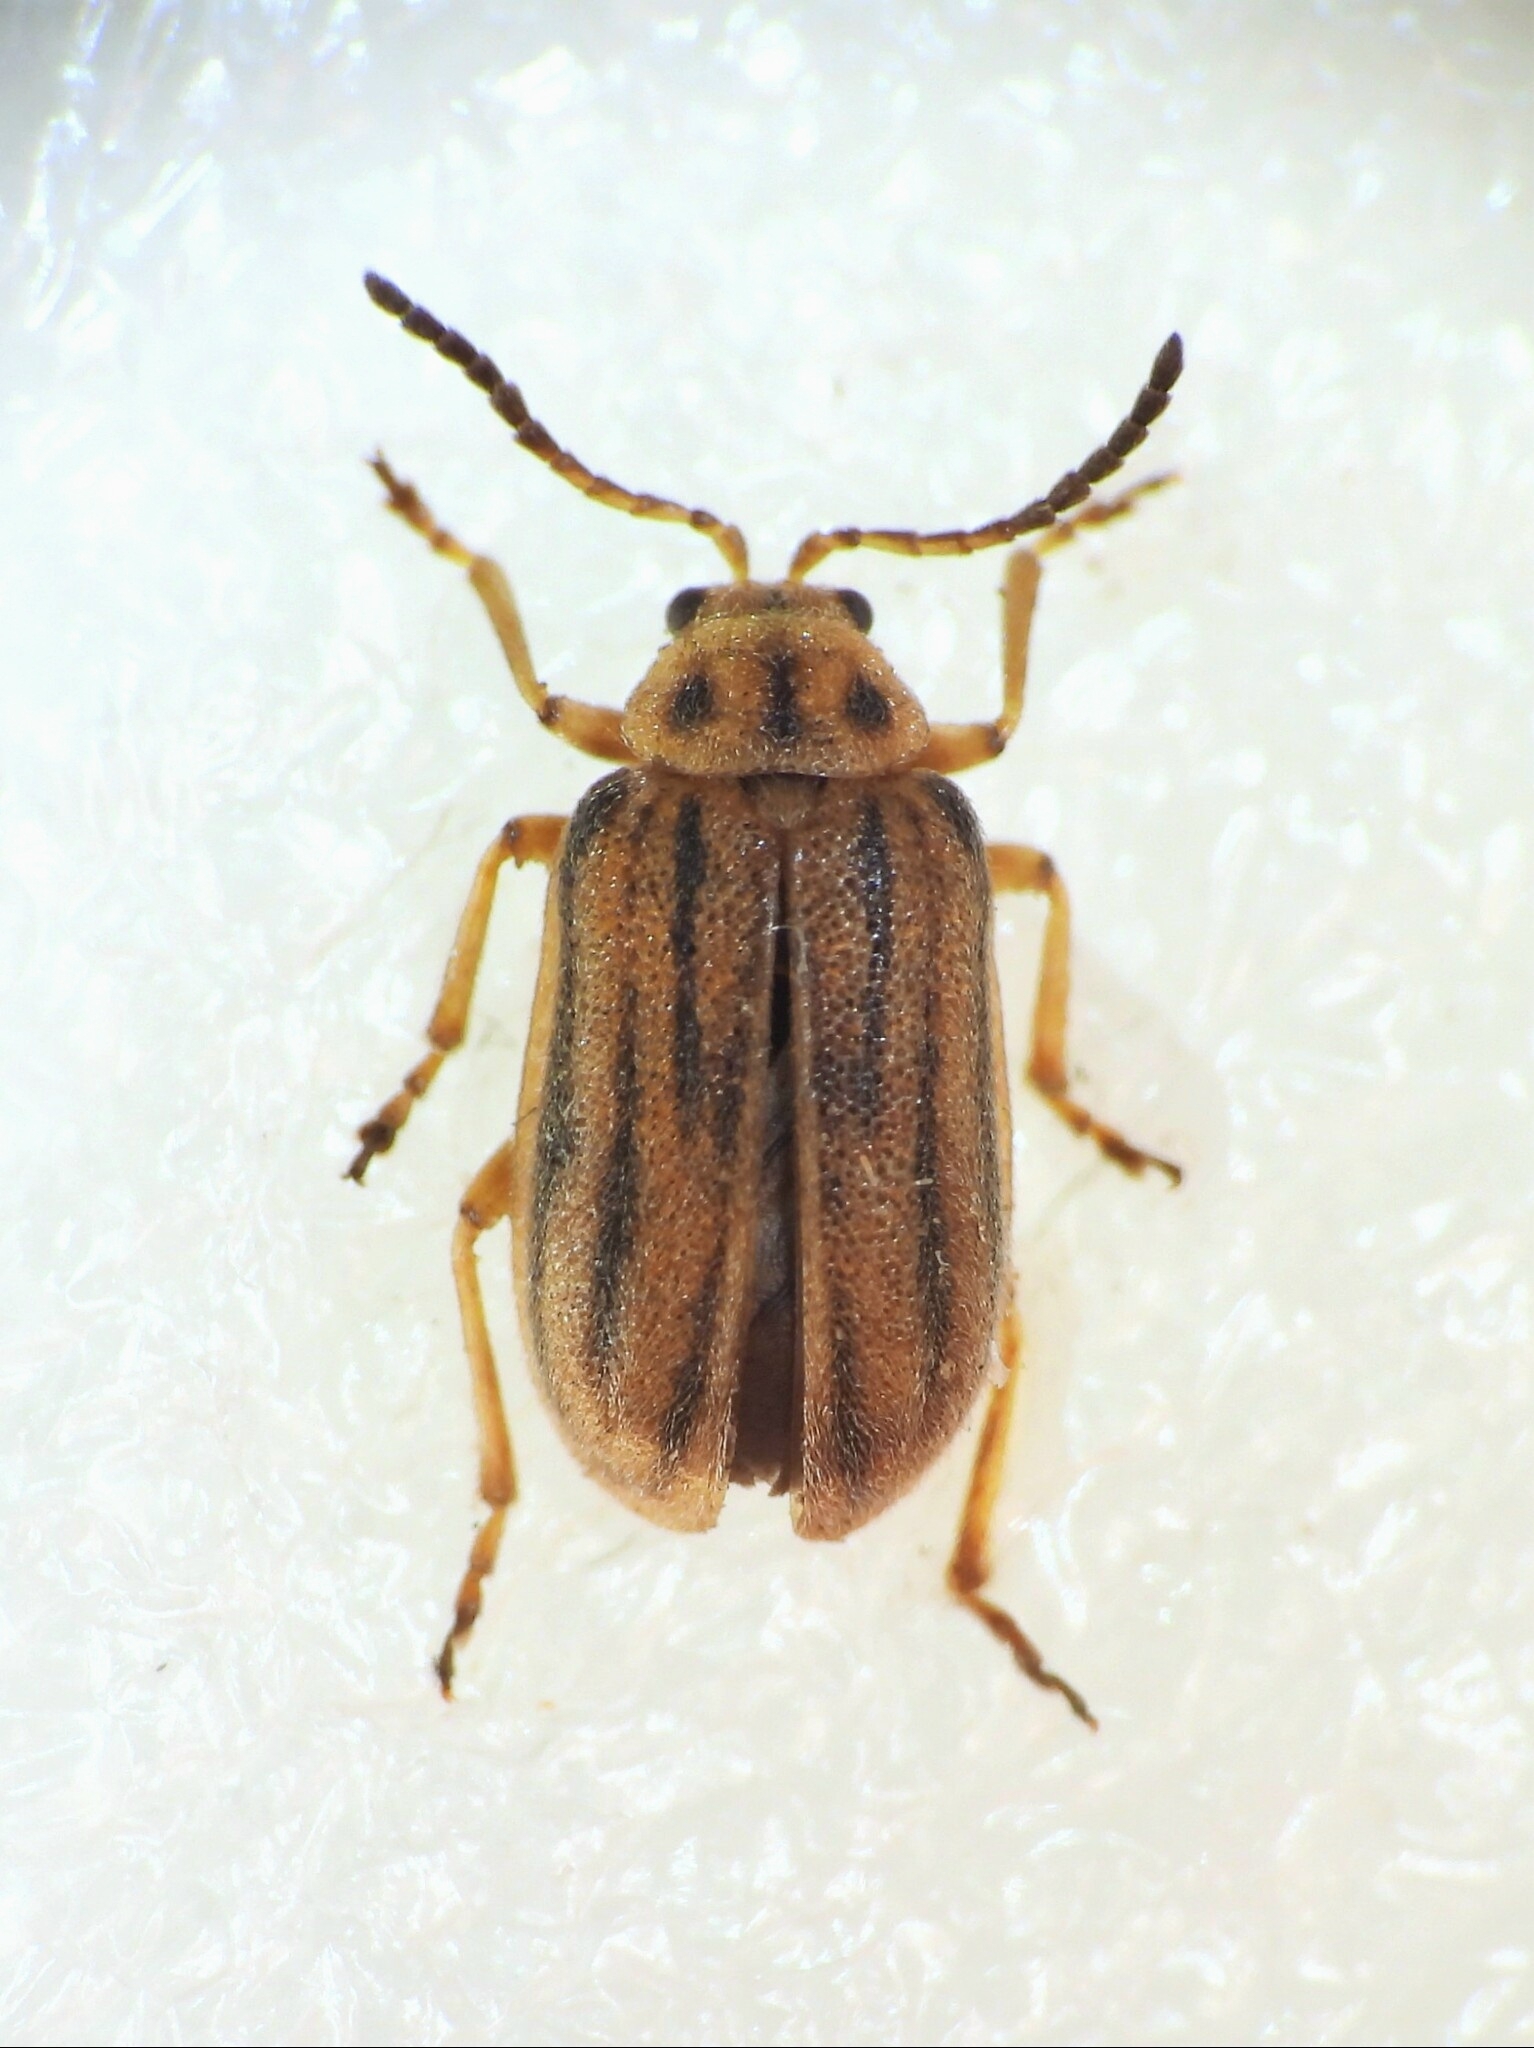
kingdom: Animalia
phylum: Arthropoda
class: Insecta
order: Coleoptera
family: Chrysomelidae
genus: Ophraella
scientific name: Ophraella communa
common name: Ragweed leaf beetle
